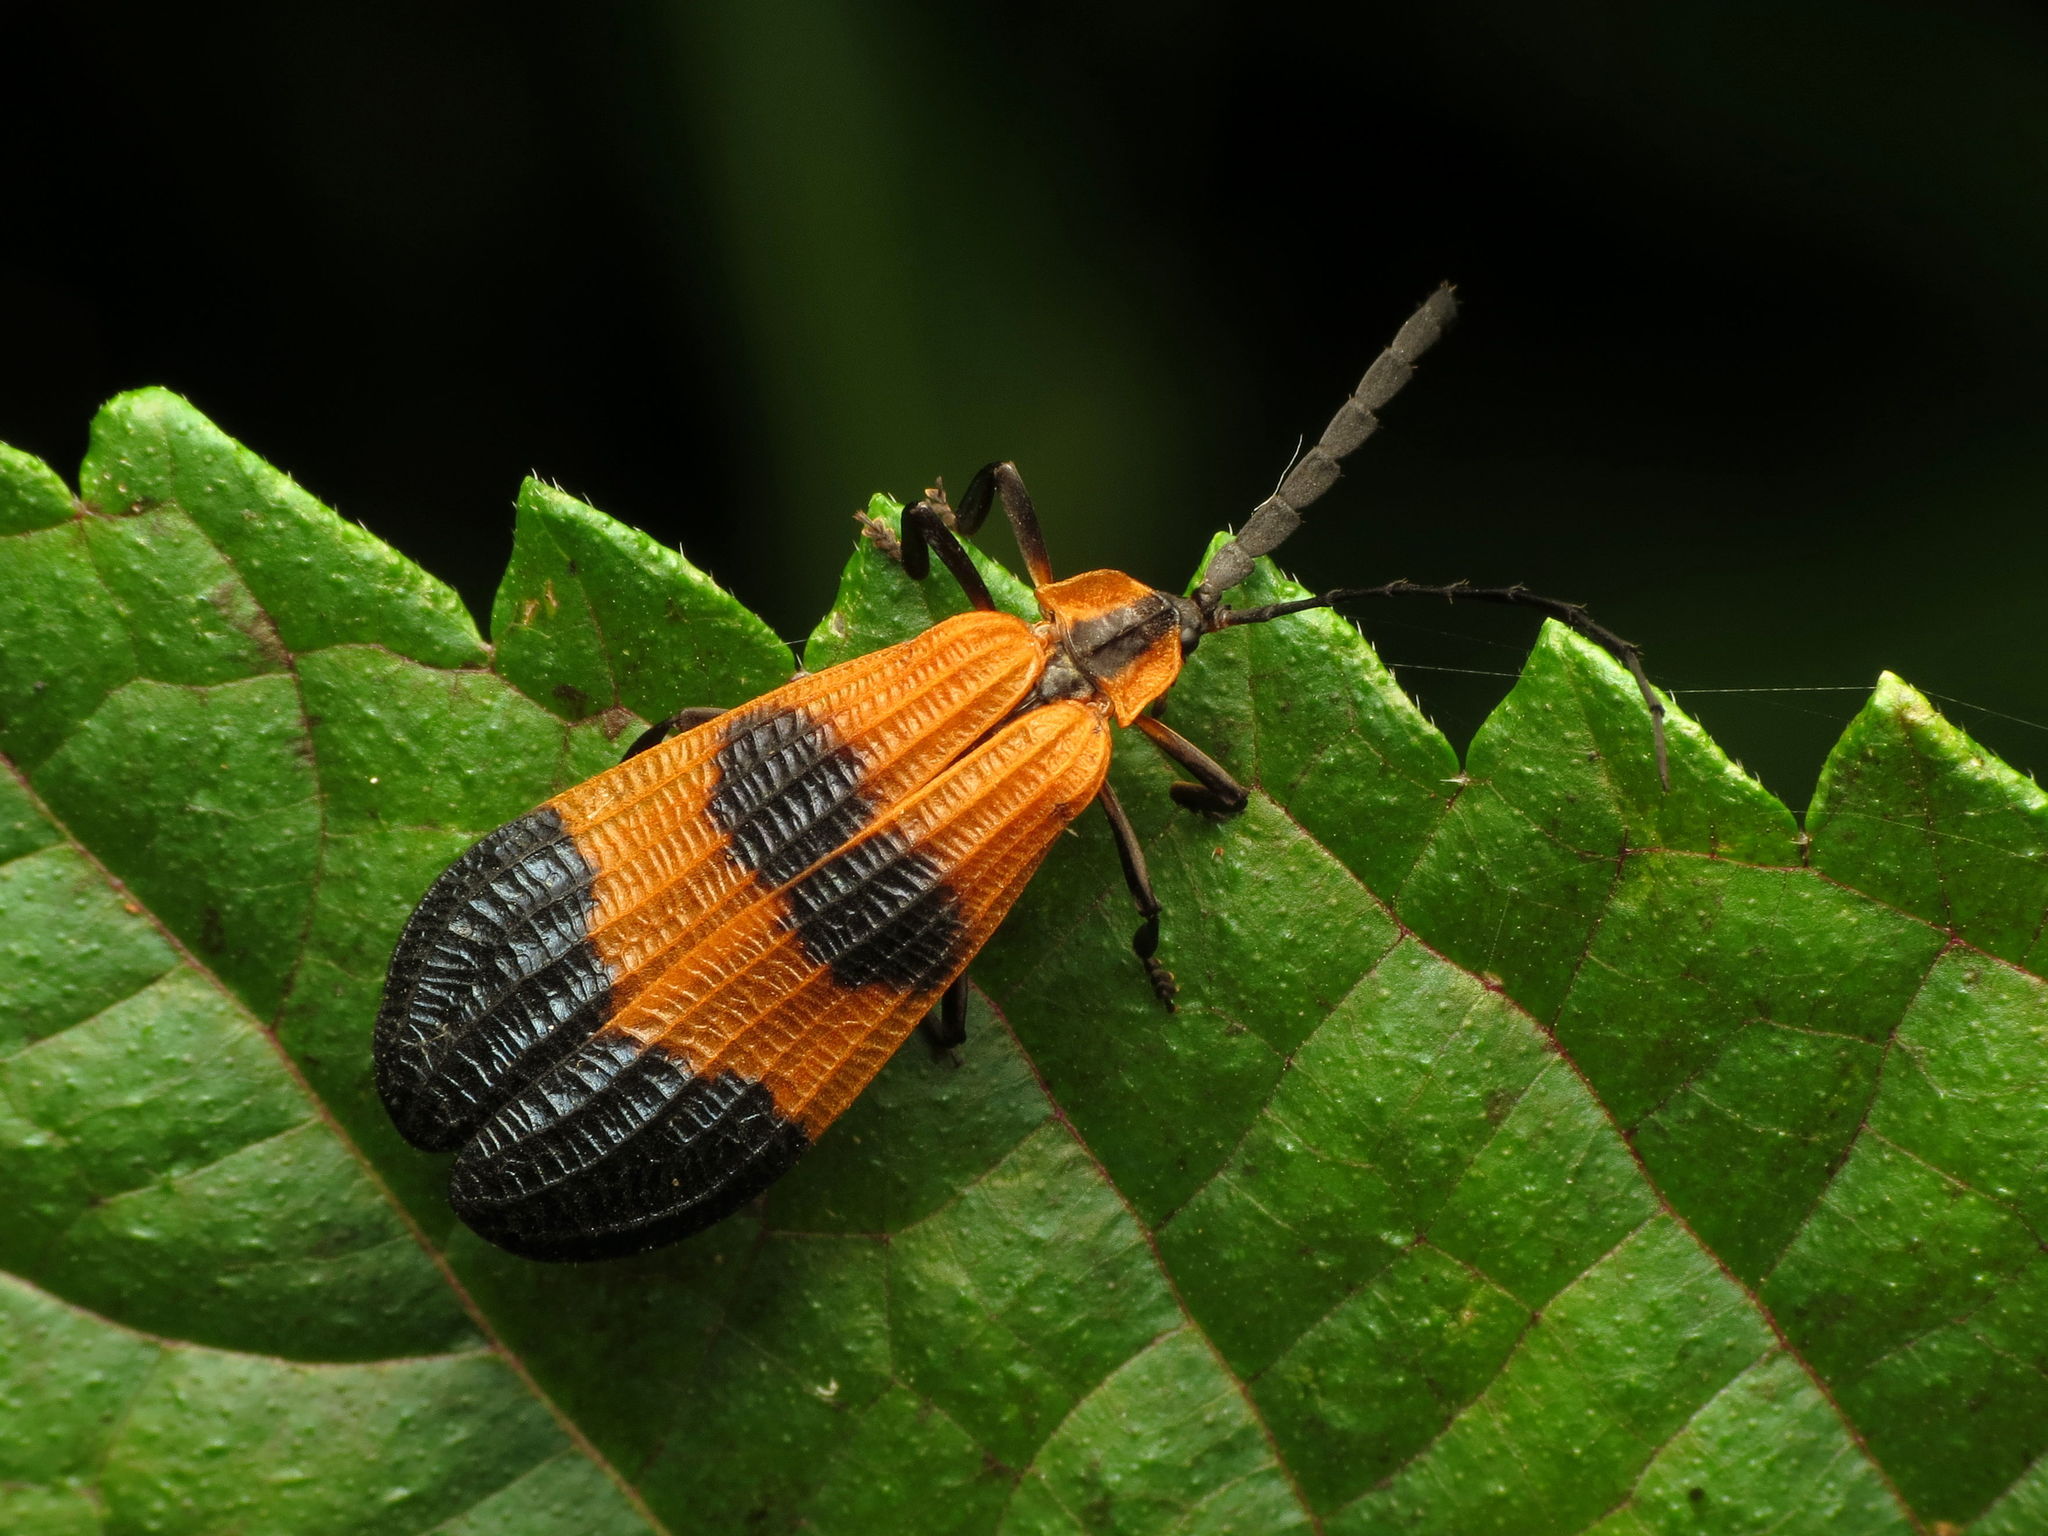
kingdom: Animalia
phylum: Arthropoda
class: Insecta
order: Coleoptera
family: Lycidae
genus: Calopteron
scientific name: Calopteron terminale
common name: End band net-winged beetle
